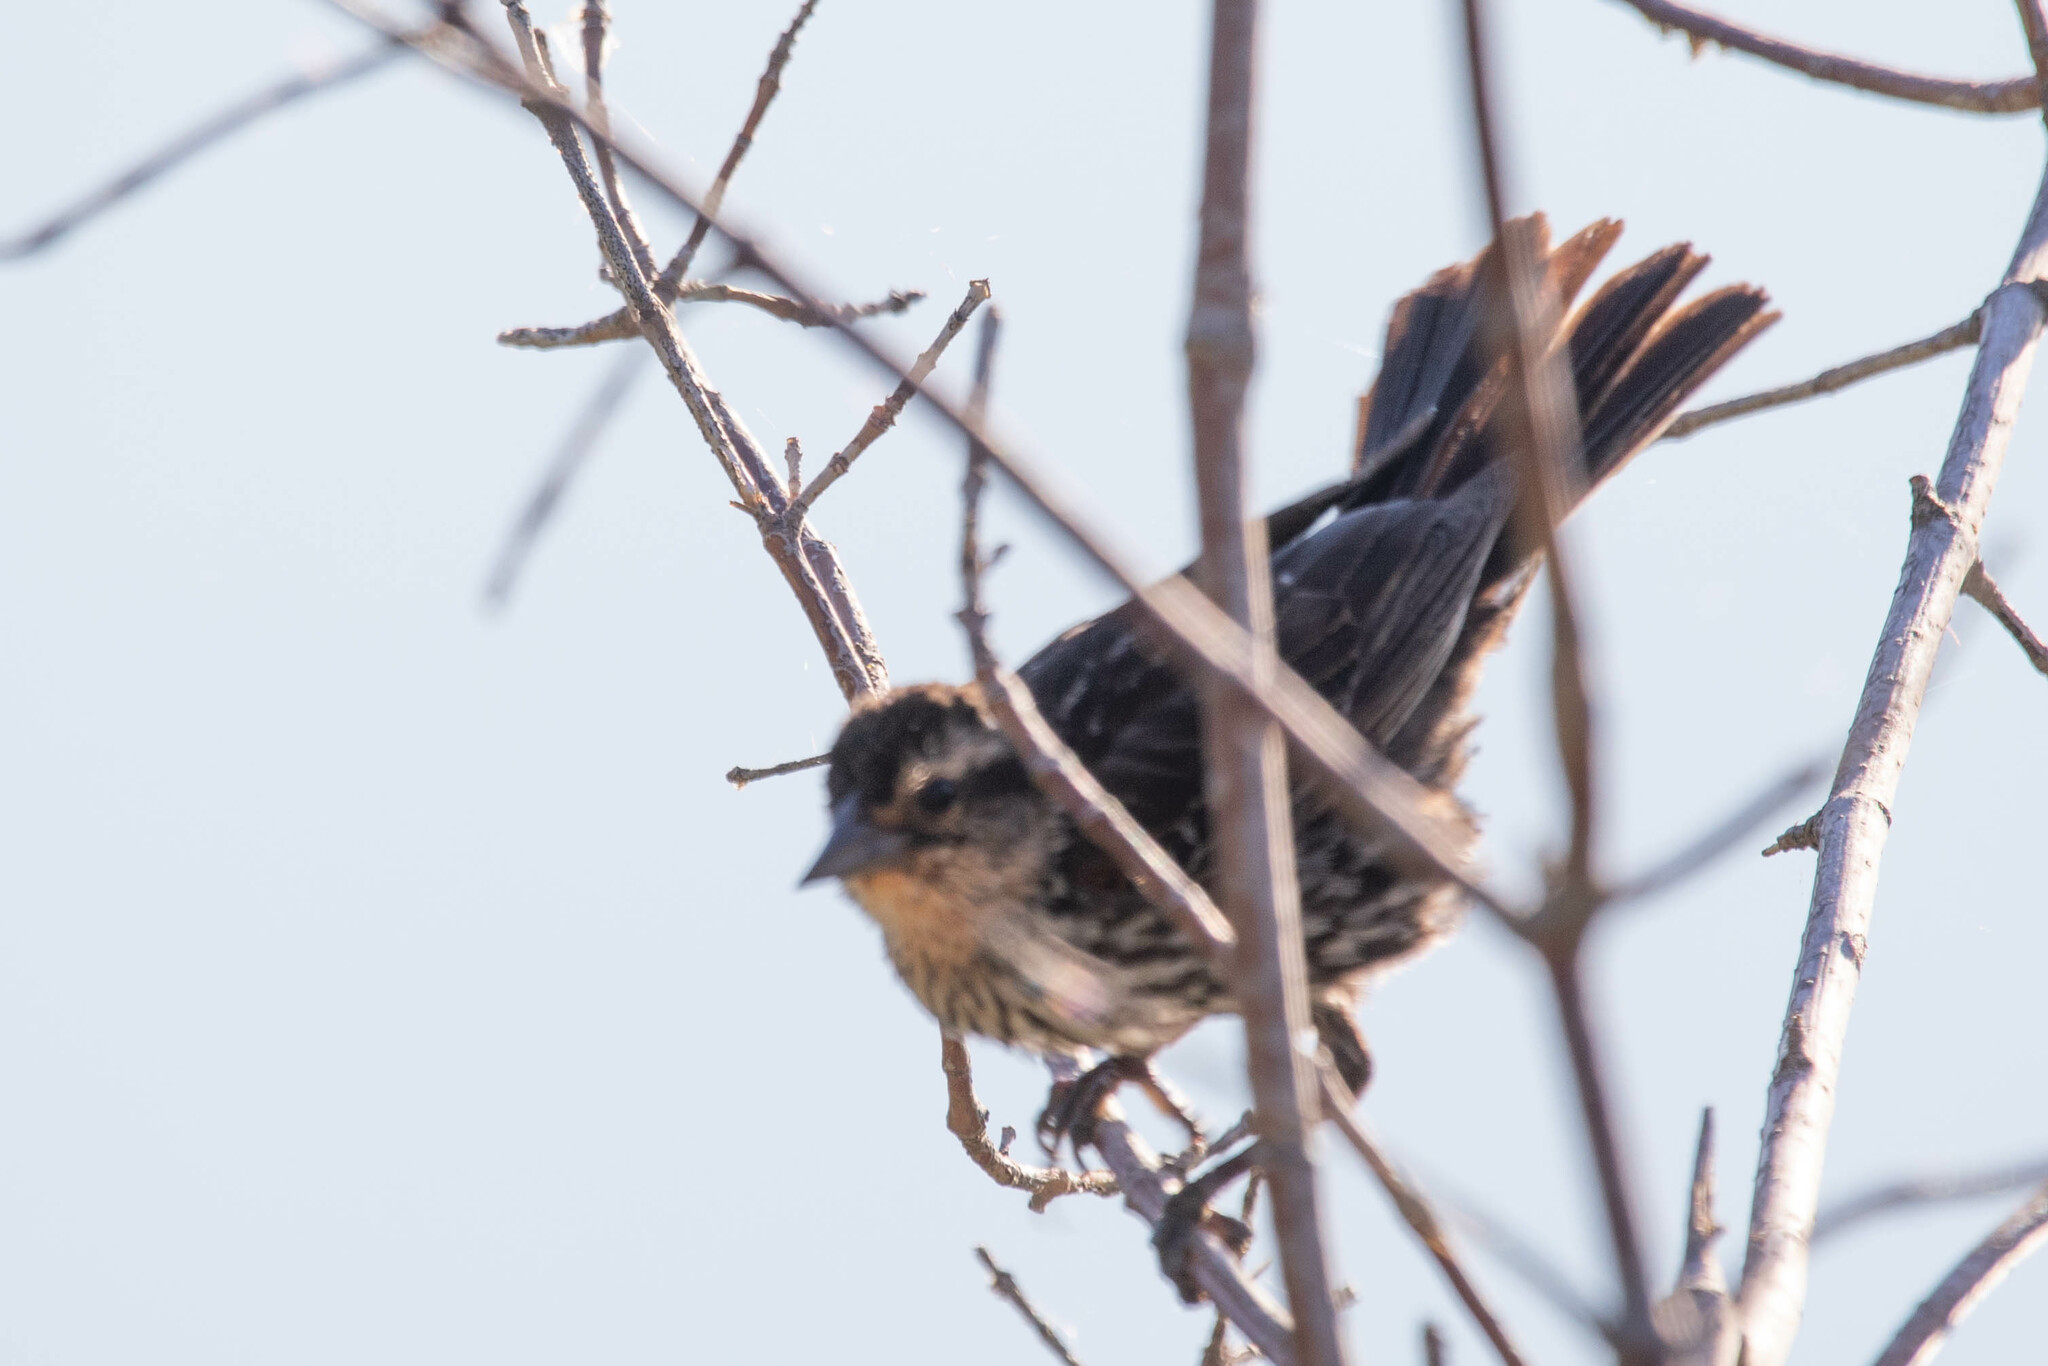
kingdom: Animalia
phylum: Chordata
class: Aves
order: Passeriformes
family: Icteridae
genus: Agelaius
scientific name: Agelaius phoeniceus
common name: Red-winged blackbird
